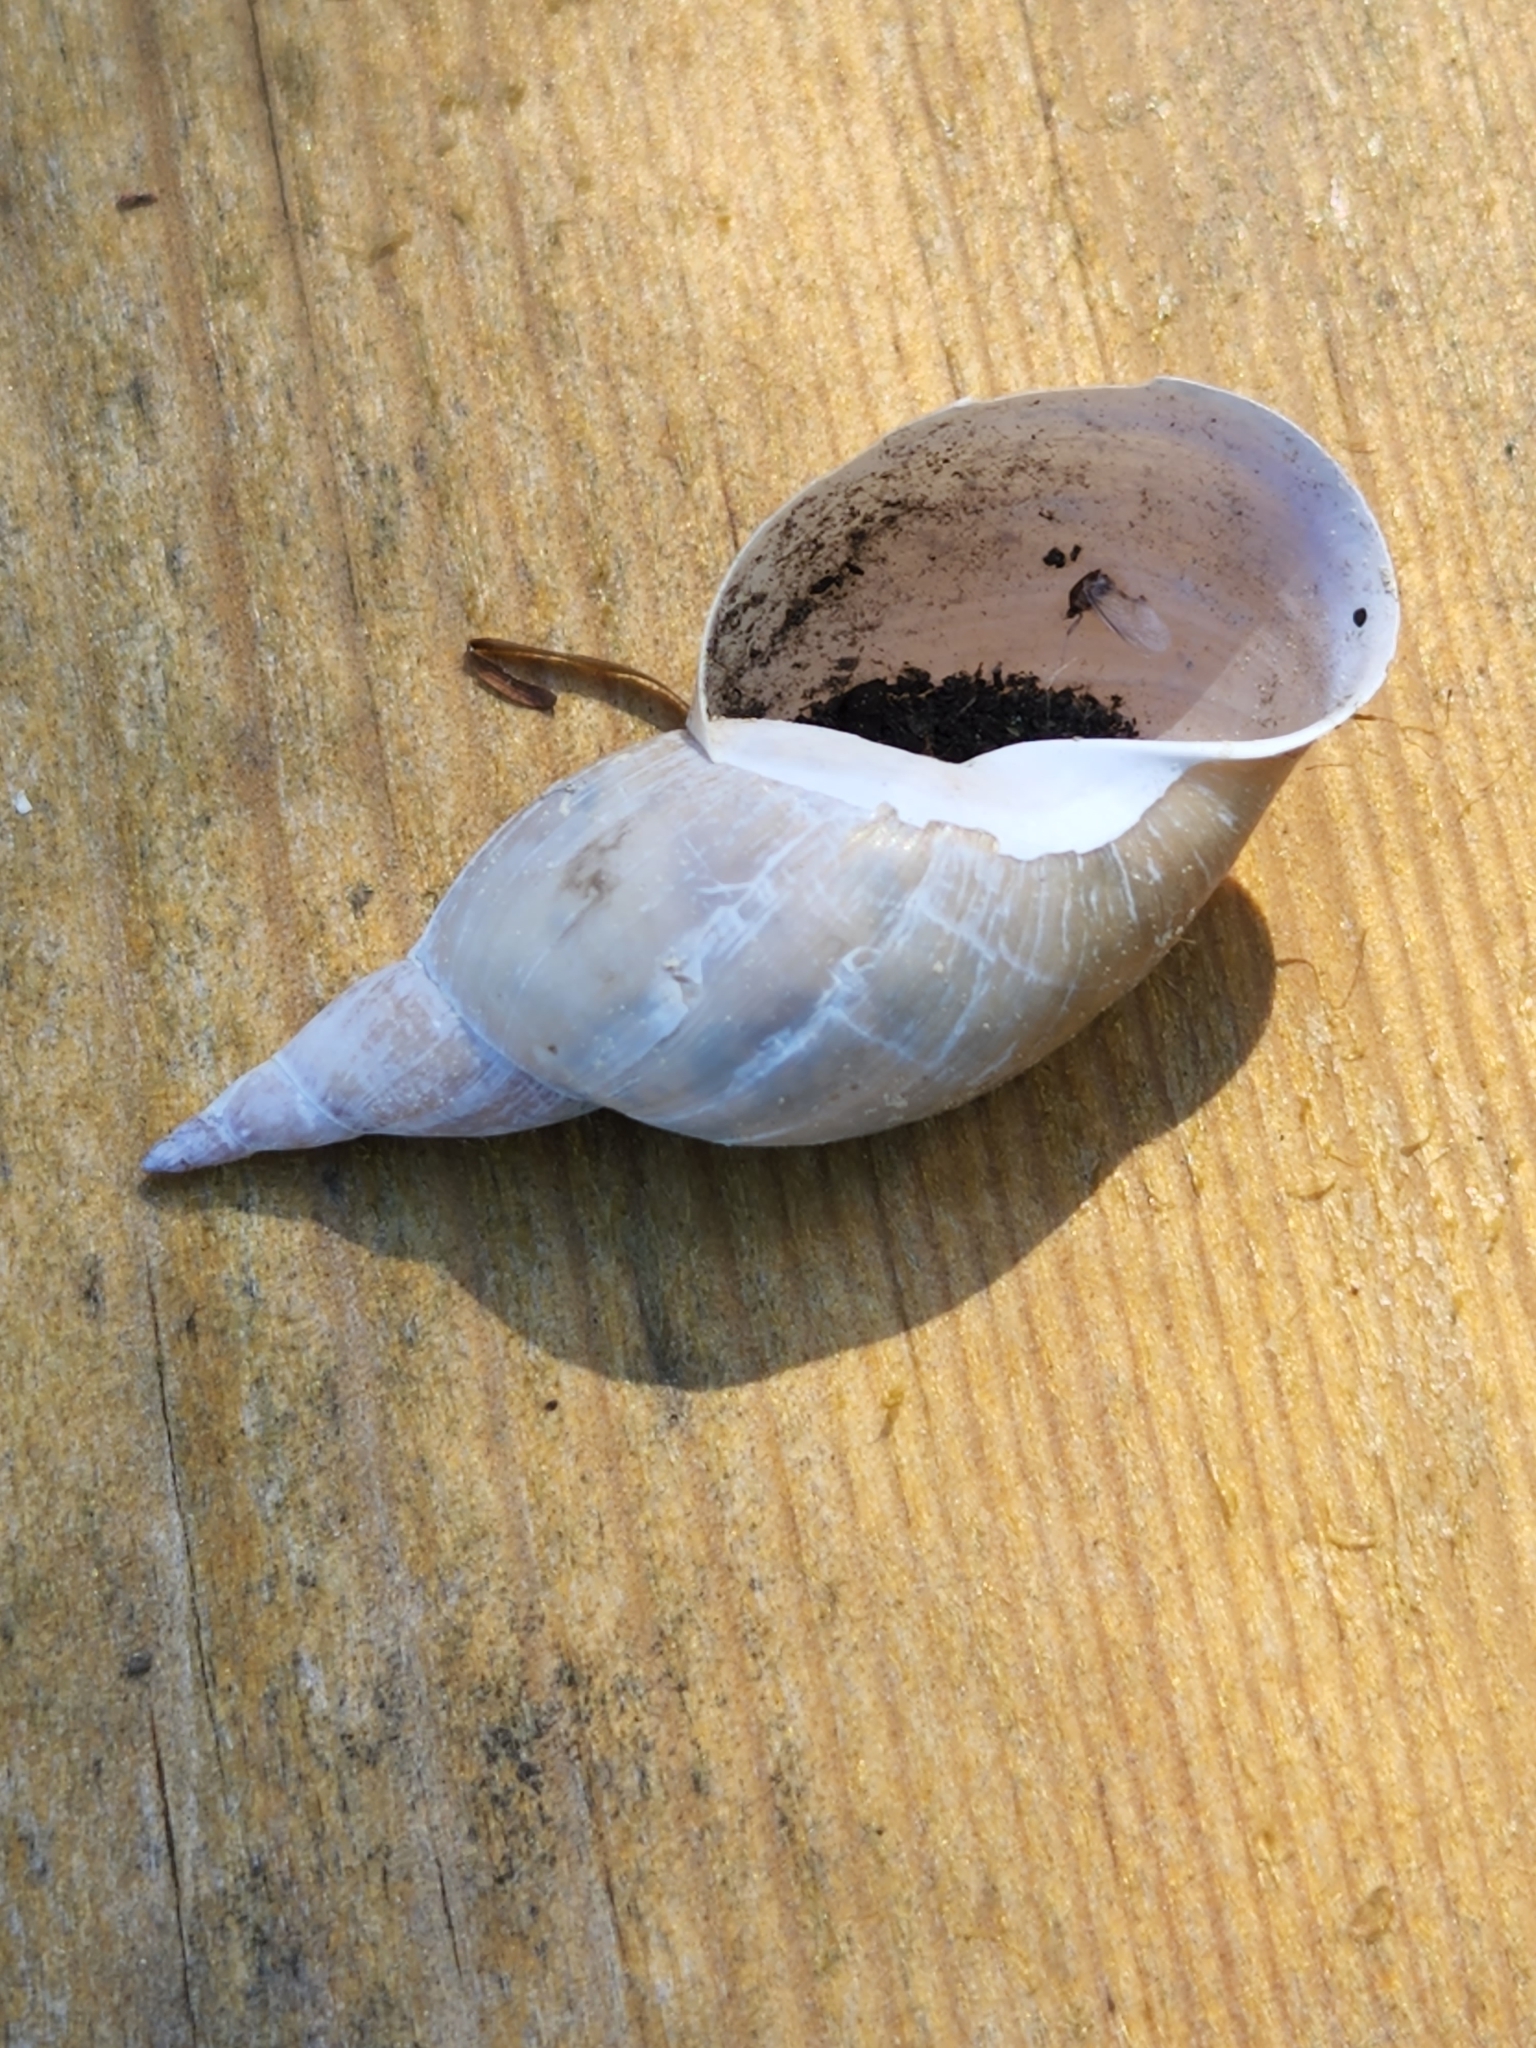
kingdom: Animalia
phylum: Mollusca
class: Gastropoda
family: Lymnaeidae
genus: Lymnaea
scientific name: Lymnaea stagnalis
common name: Great pond snail
